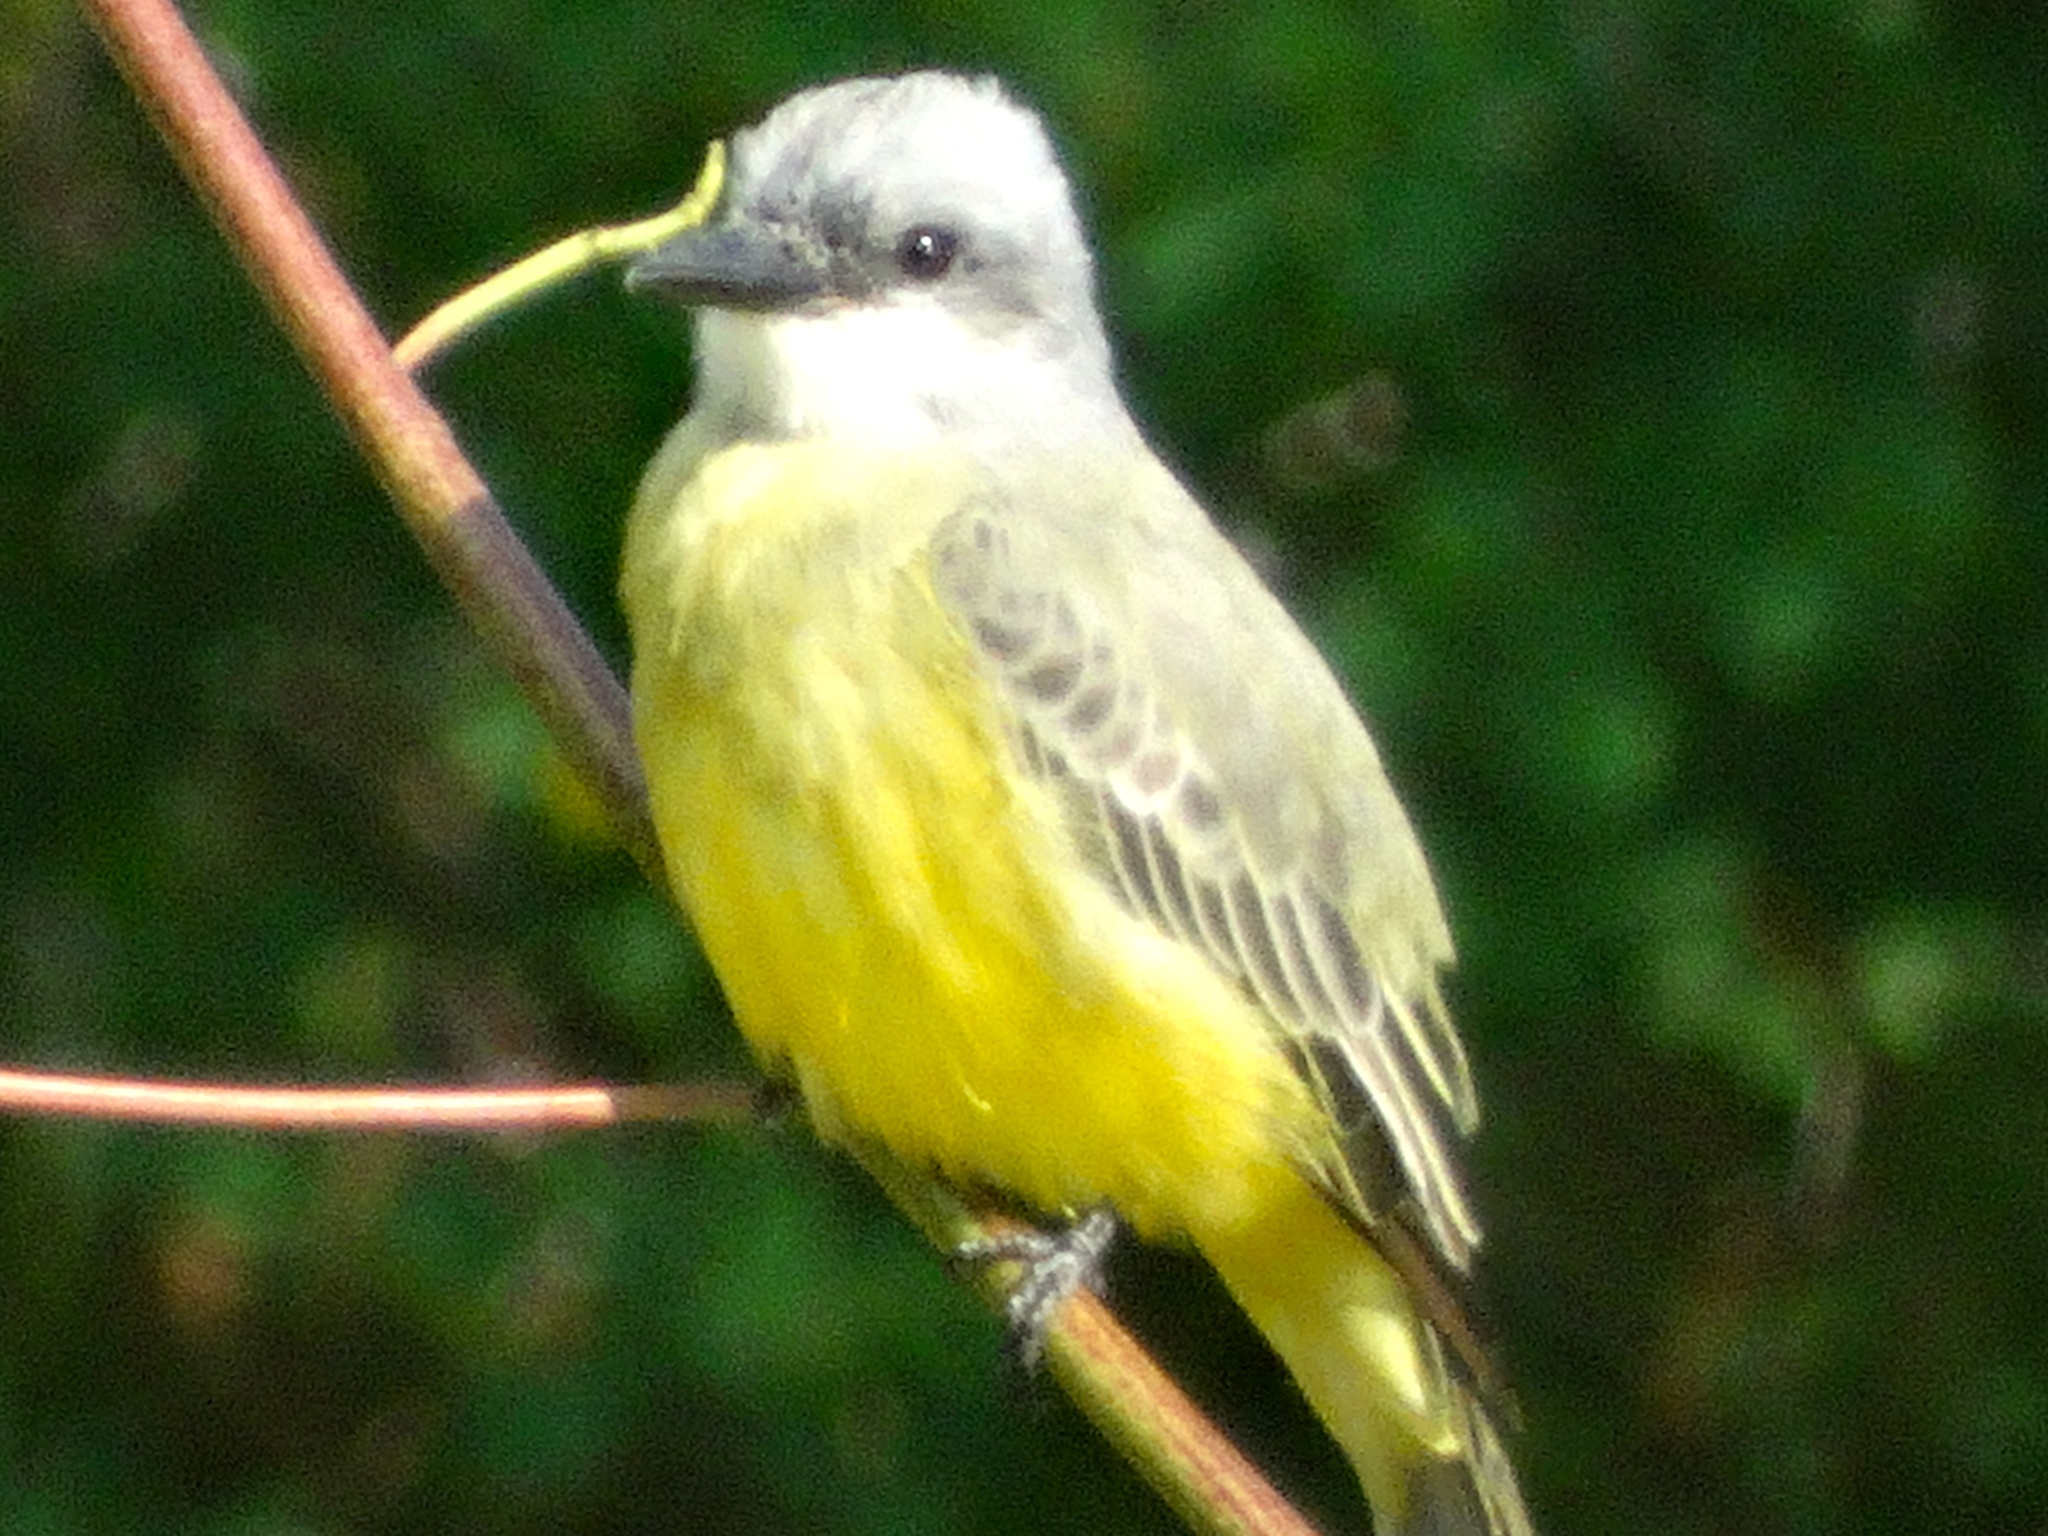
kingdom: Animalia
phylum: Chordata
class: Aves
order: Passeriformes
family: Tyrannidae
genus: Tyrannus
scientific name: Tyrannus melancholicus
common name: Tropical kingbird
